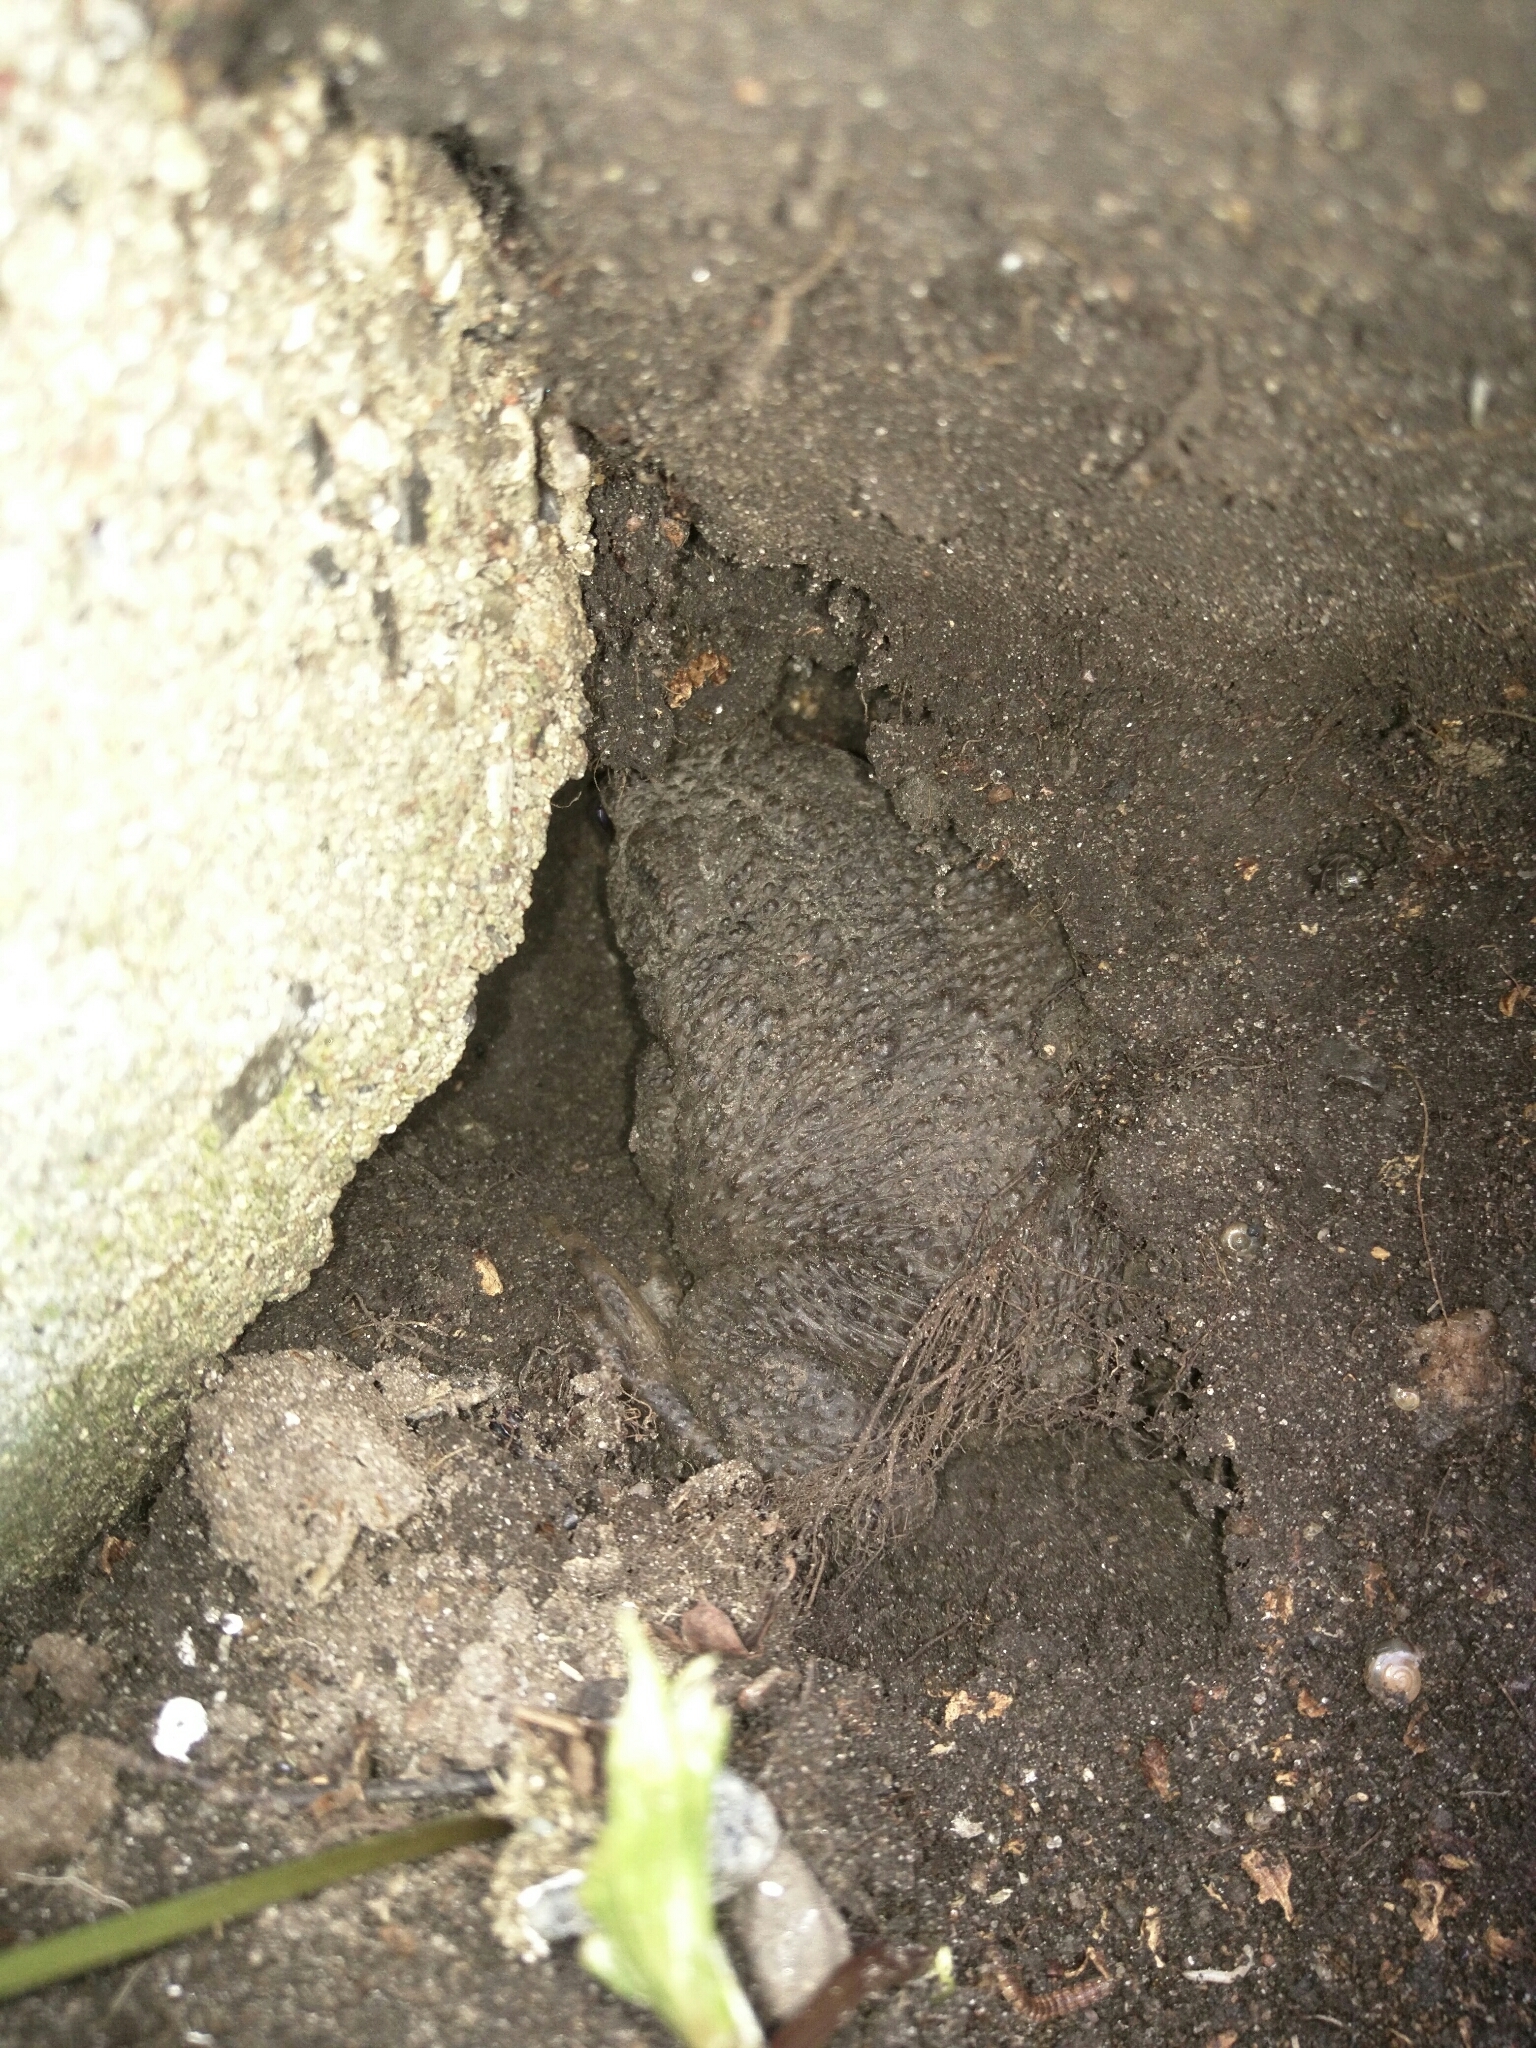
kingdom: Animalia
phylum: Chordata
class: Amphibia
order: Anura
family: Bufonidae
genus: Bufo
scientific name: Bufo bufo
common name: Common toad
